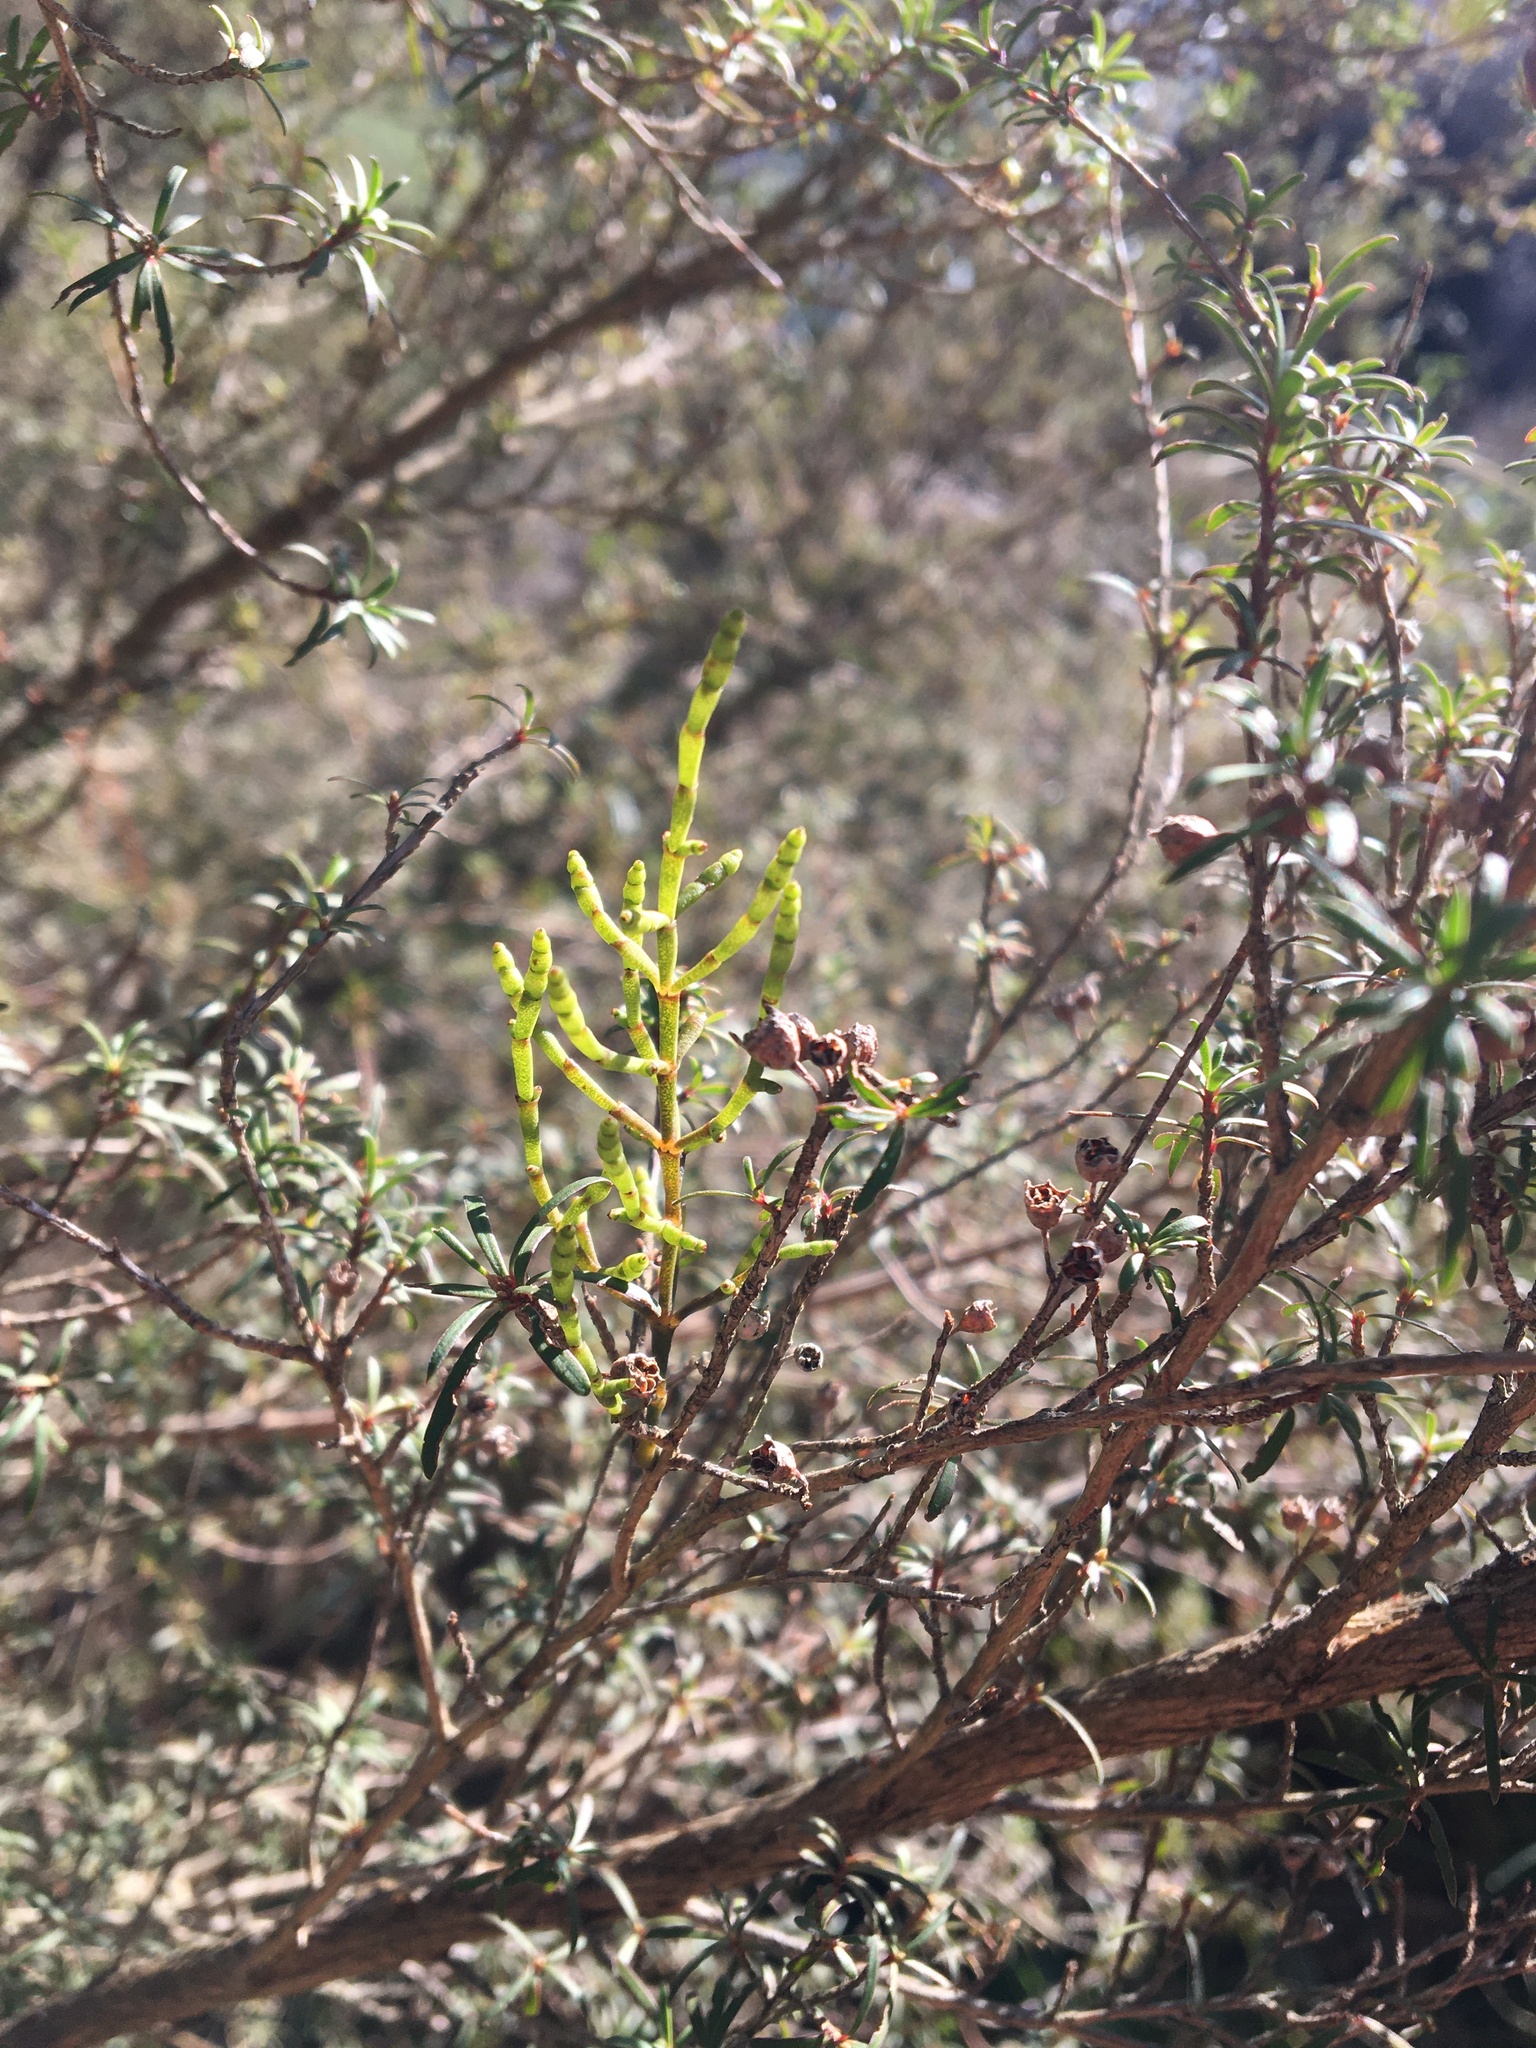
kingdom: Plantae
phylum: Tracheophyta
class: Magnoliopsida
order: Santalales
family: Viscaceae
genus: Korthalsella
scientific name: Korthalsella salicornioides
